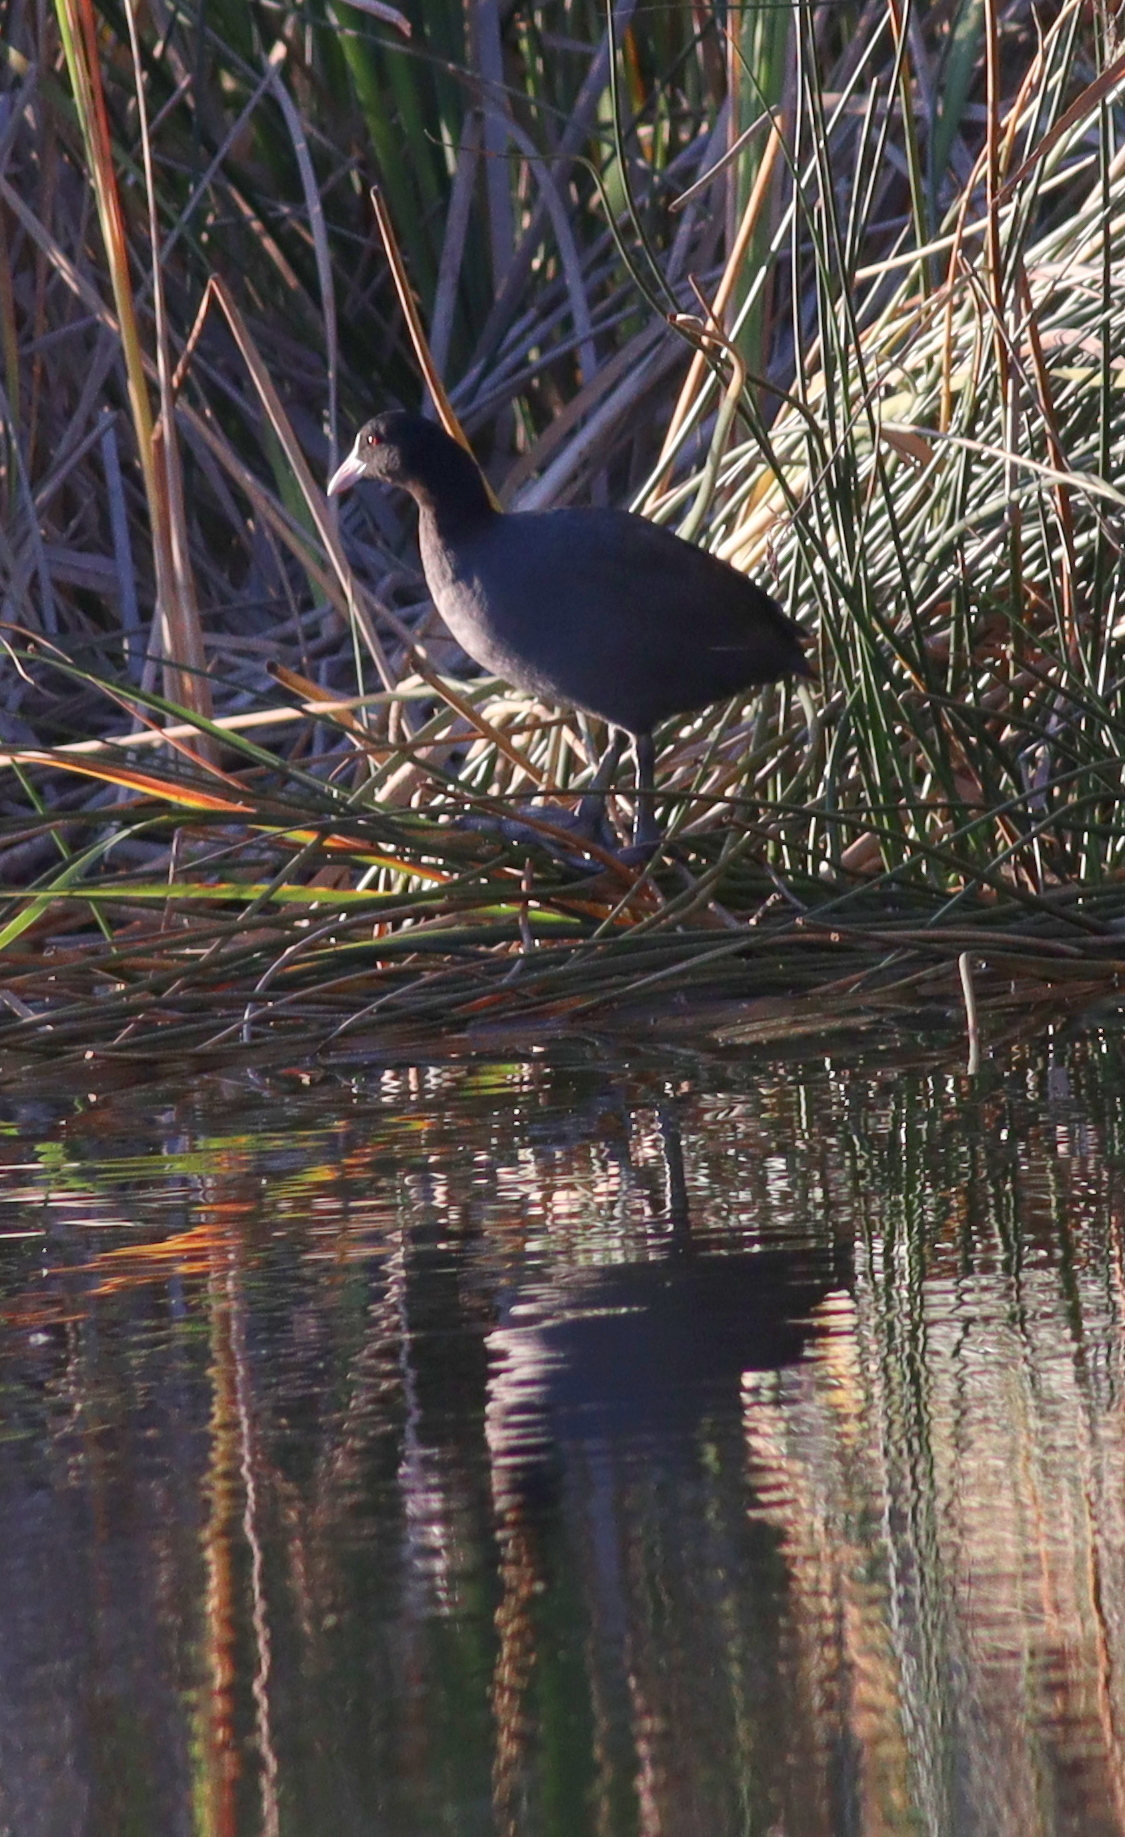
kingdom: Animalia
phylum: Chordata
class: Aves
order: Gruiformes
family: Rallidae
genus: Fulica
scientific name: Fulica atra
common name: Eurasian coot
